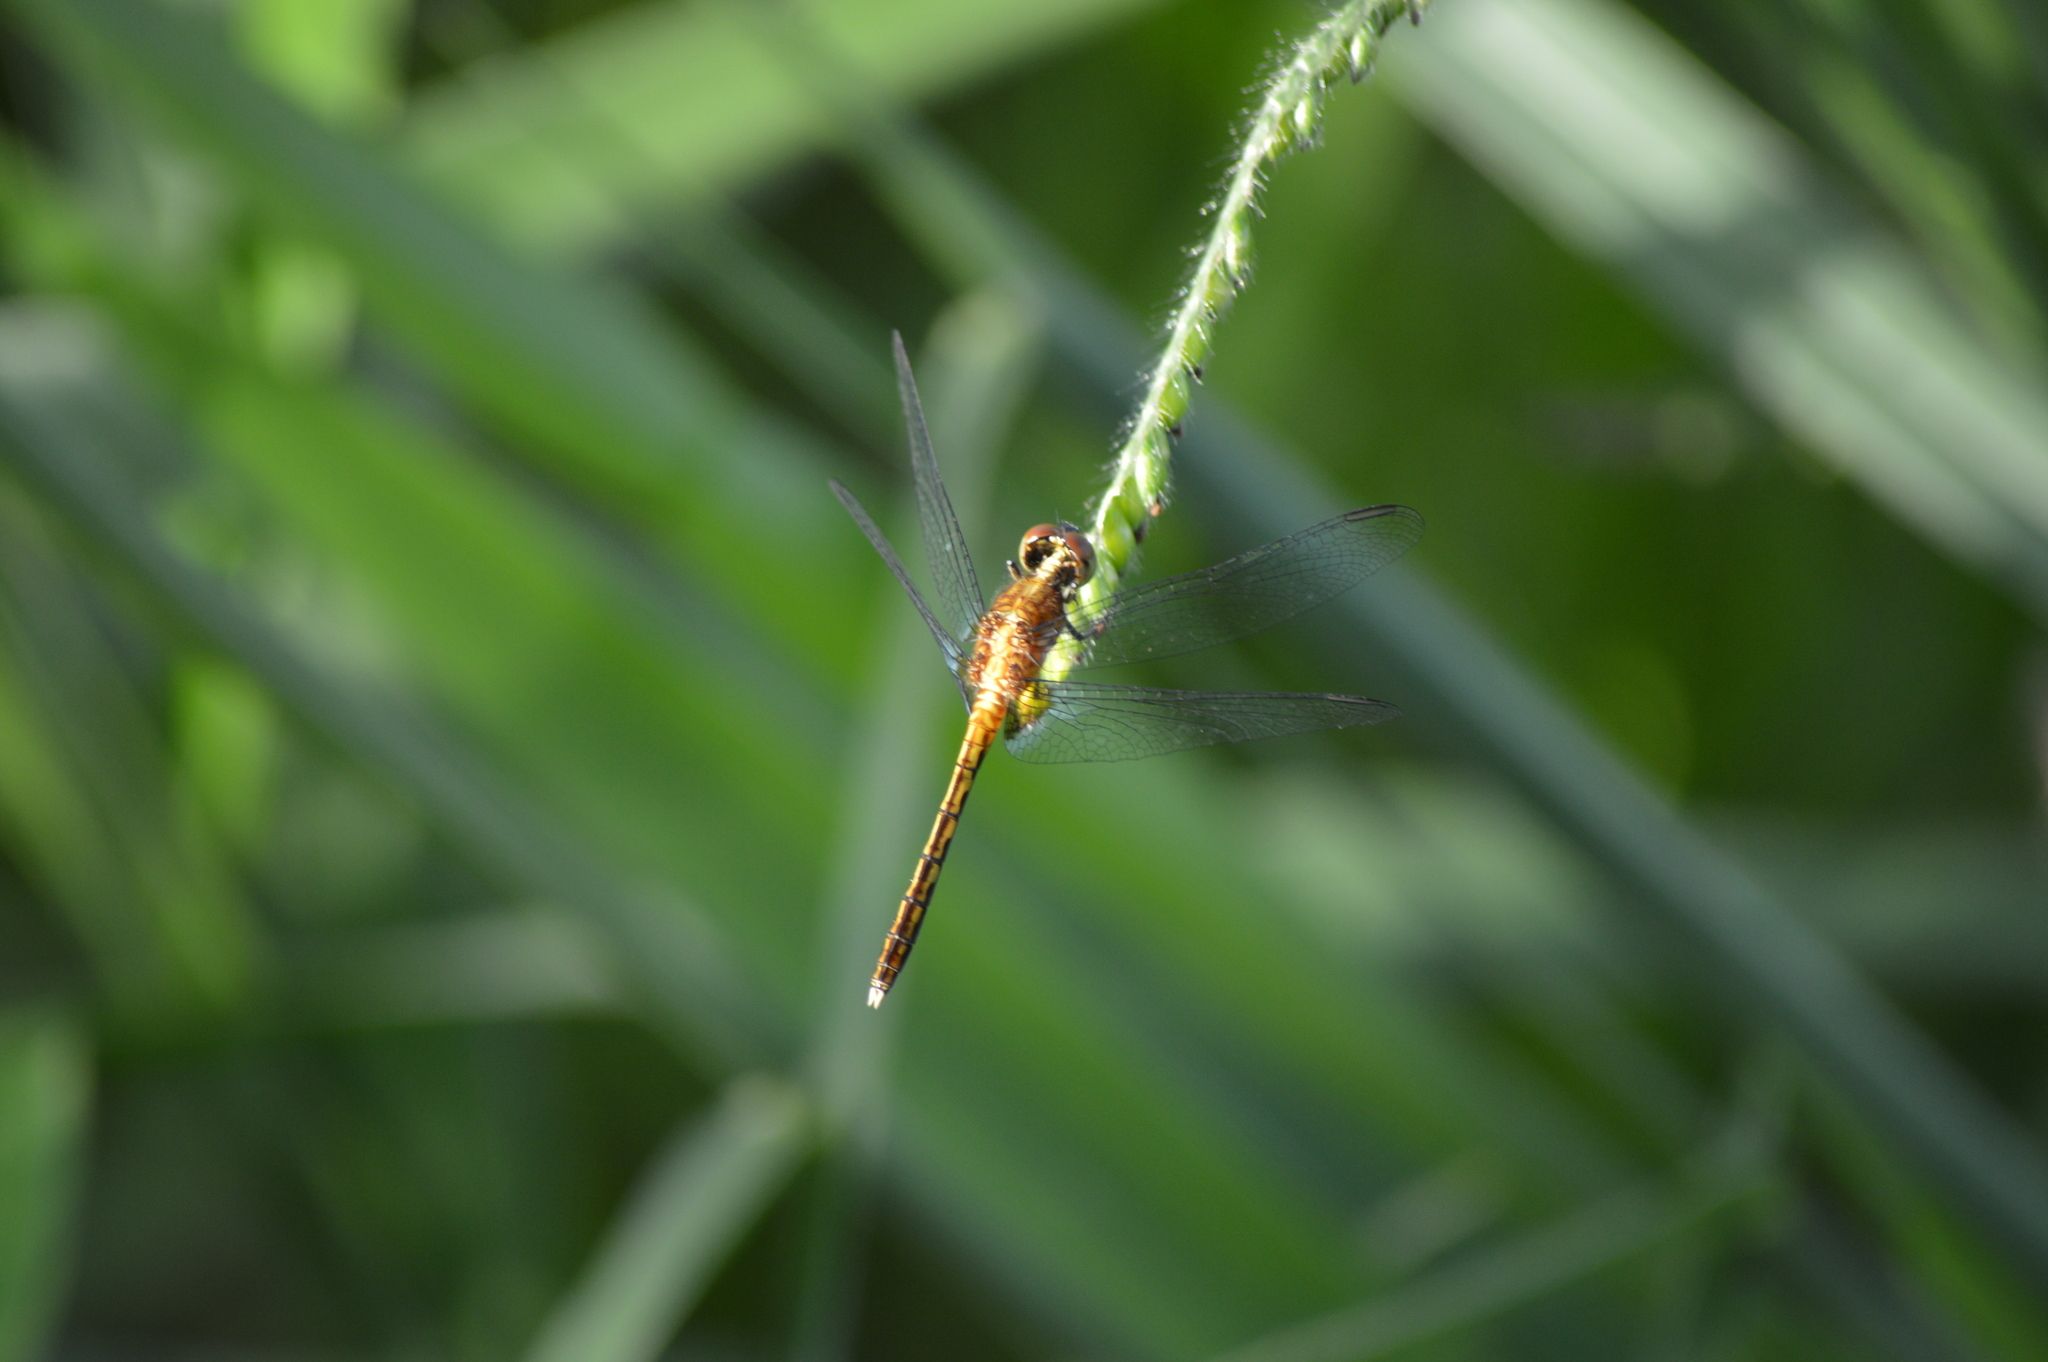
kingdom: Animalia
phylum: Arthropoda
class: Insecta
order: Odonata
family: Libellulidae
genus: Erythrodiplax
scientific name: Erythrodiplax avittata
